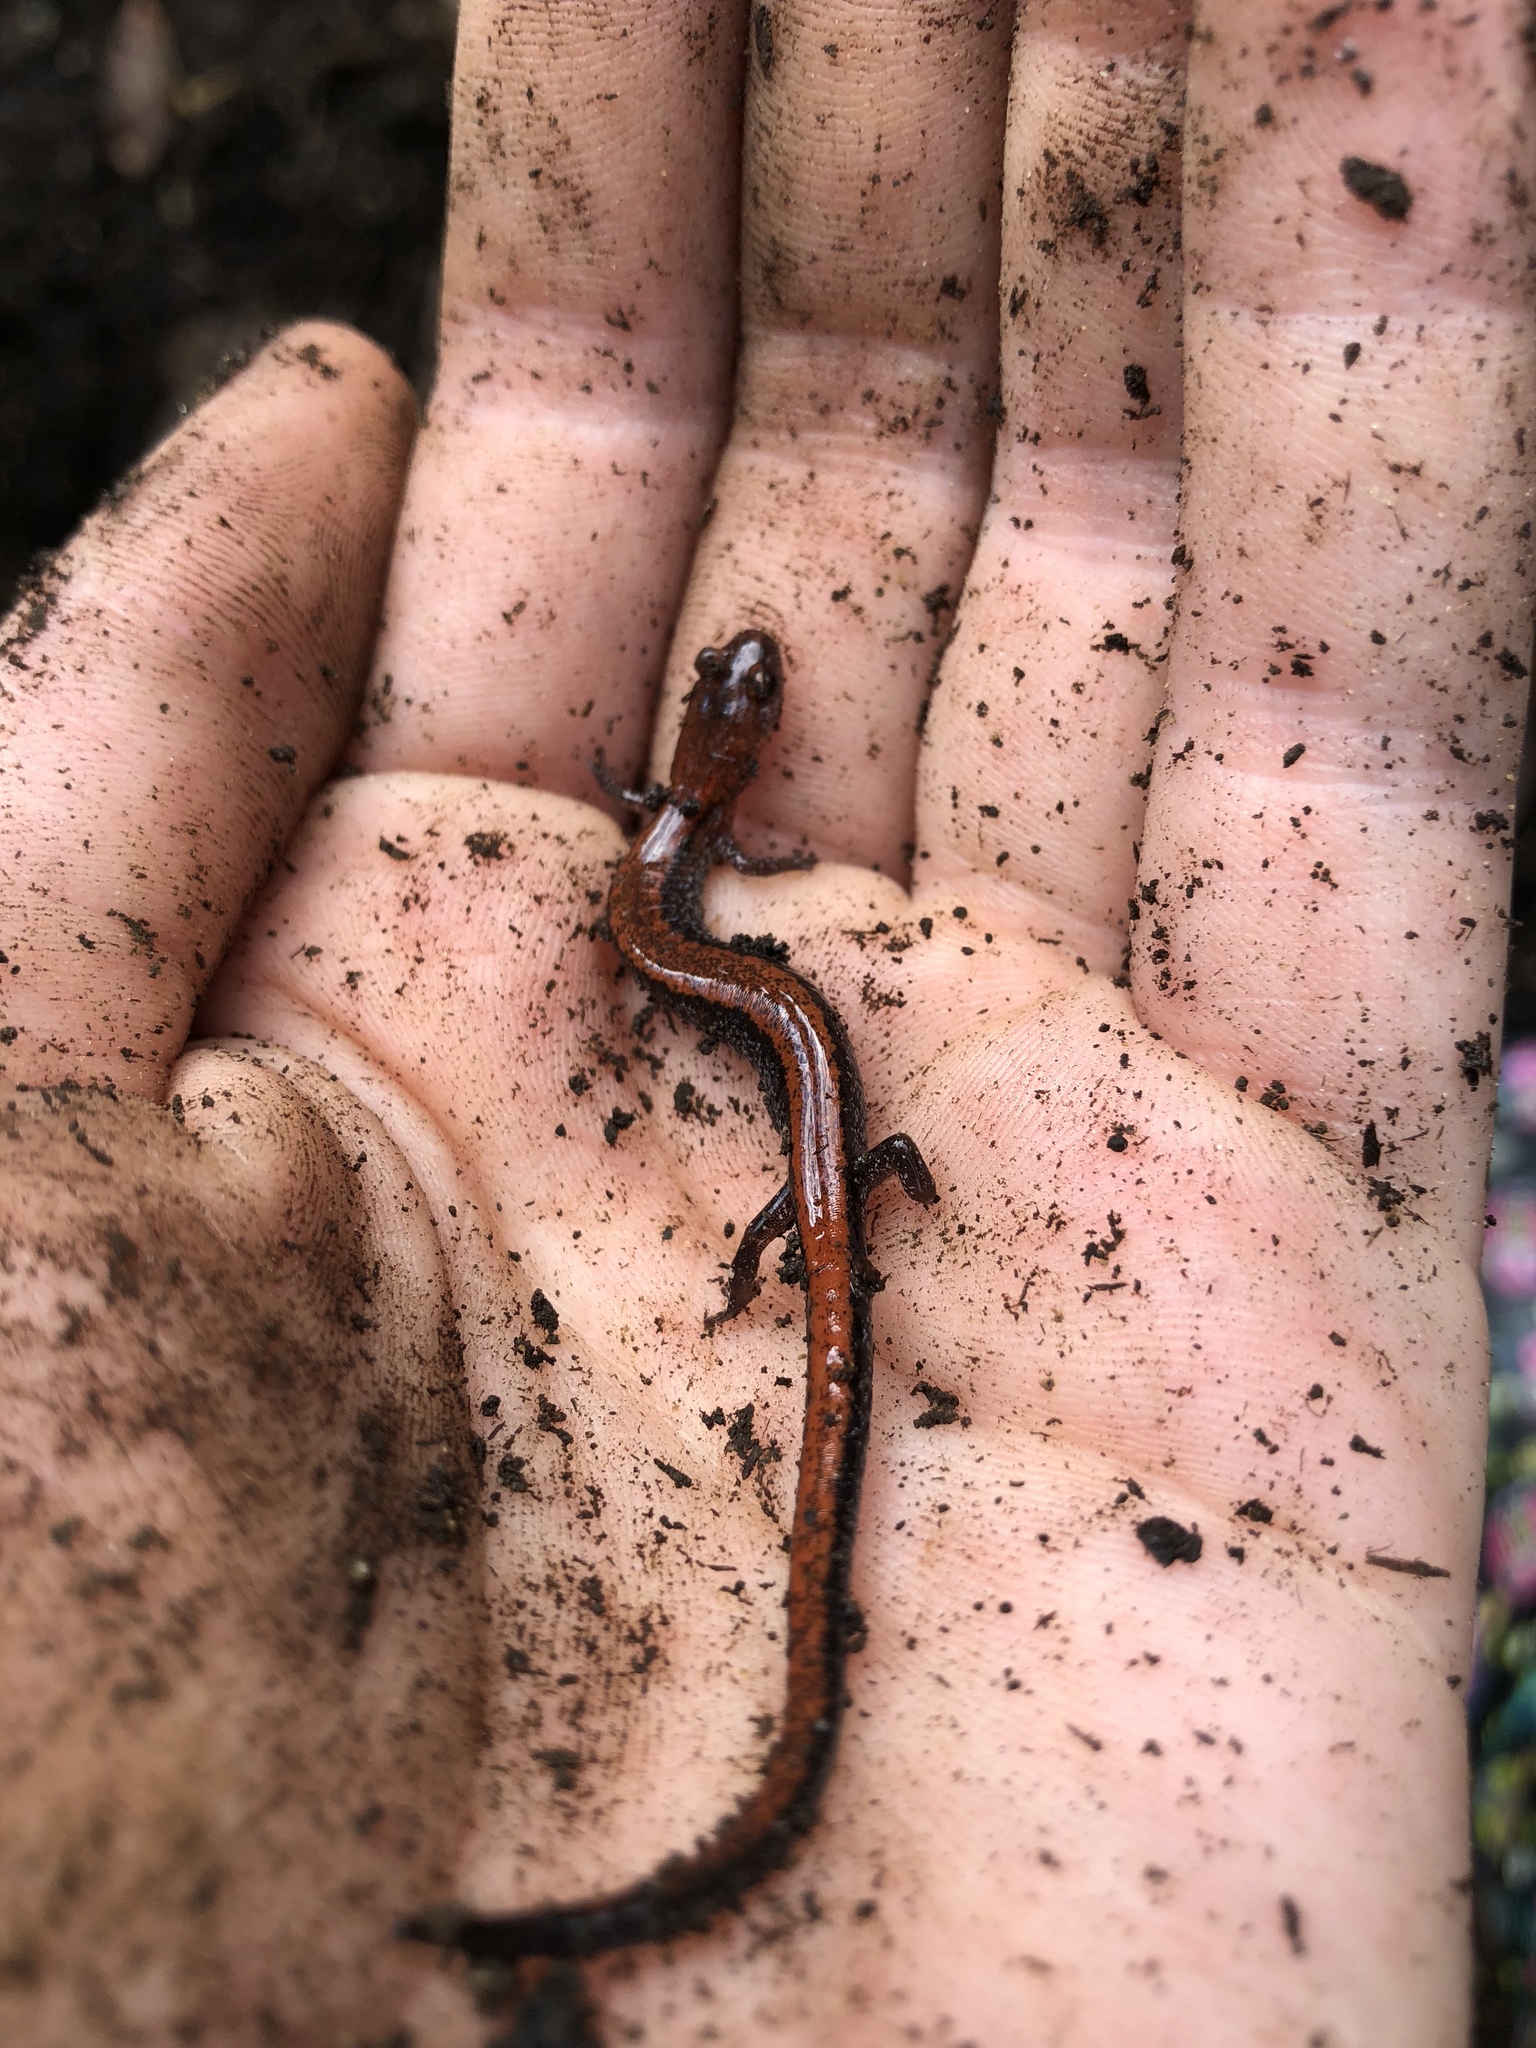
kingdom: Animalia
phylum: Chordata
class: Amphibia
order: Caudata
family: Plethodontidae
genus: Plethodon
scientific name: Plethodon cinereus
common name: Redback salamander
